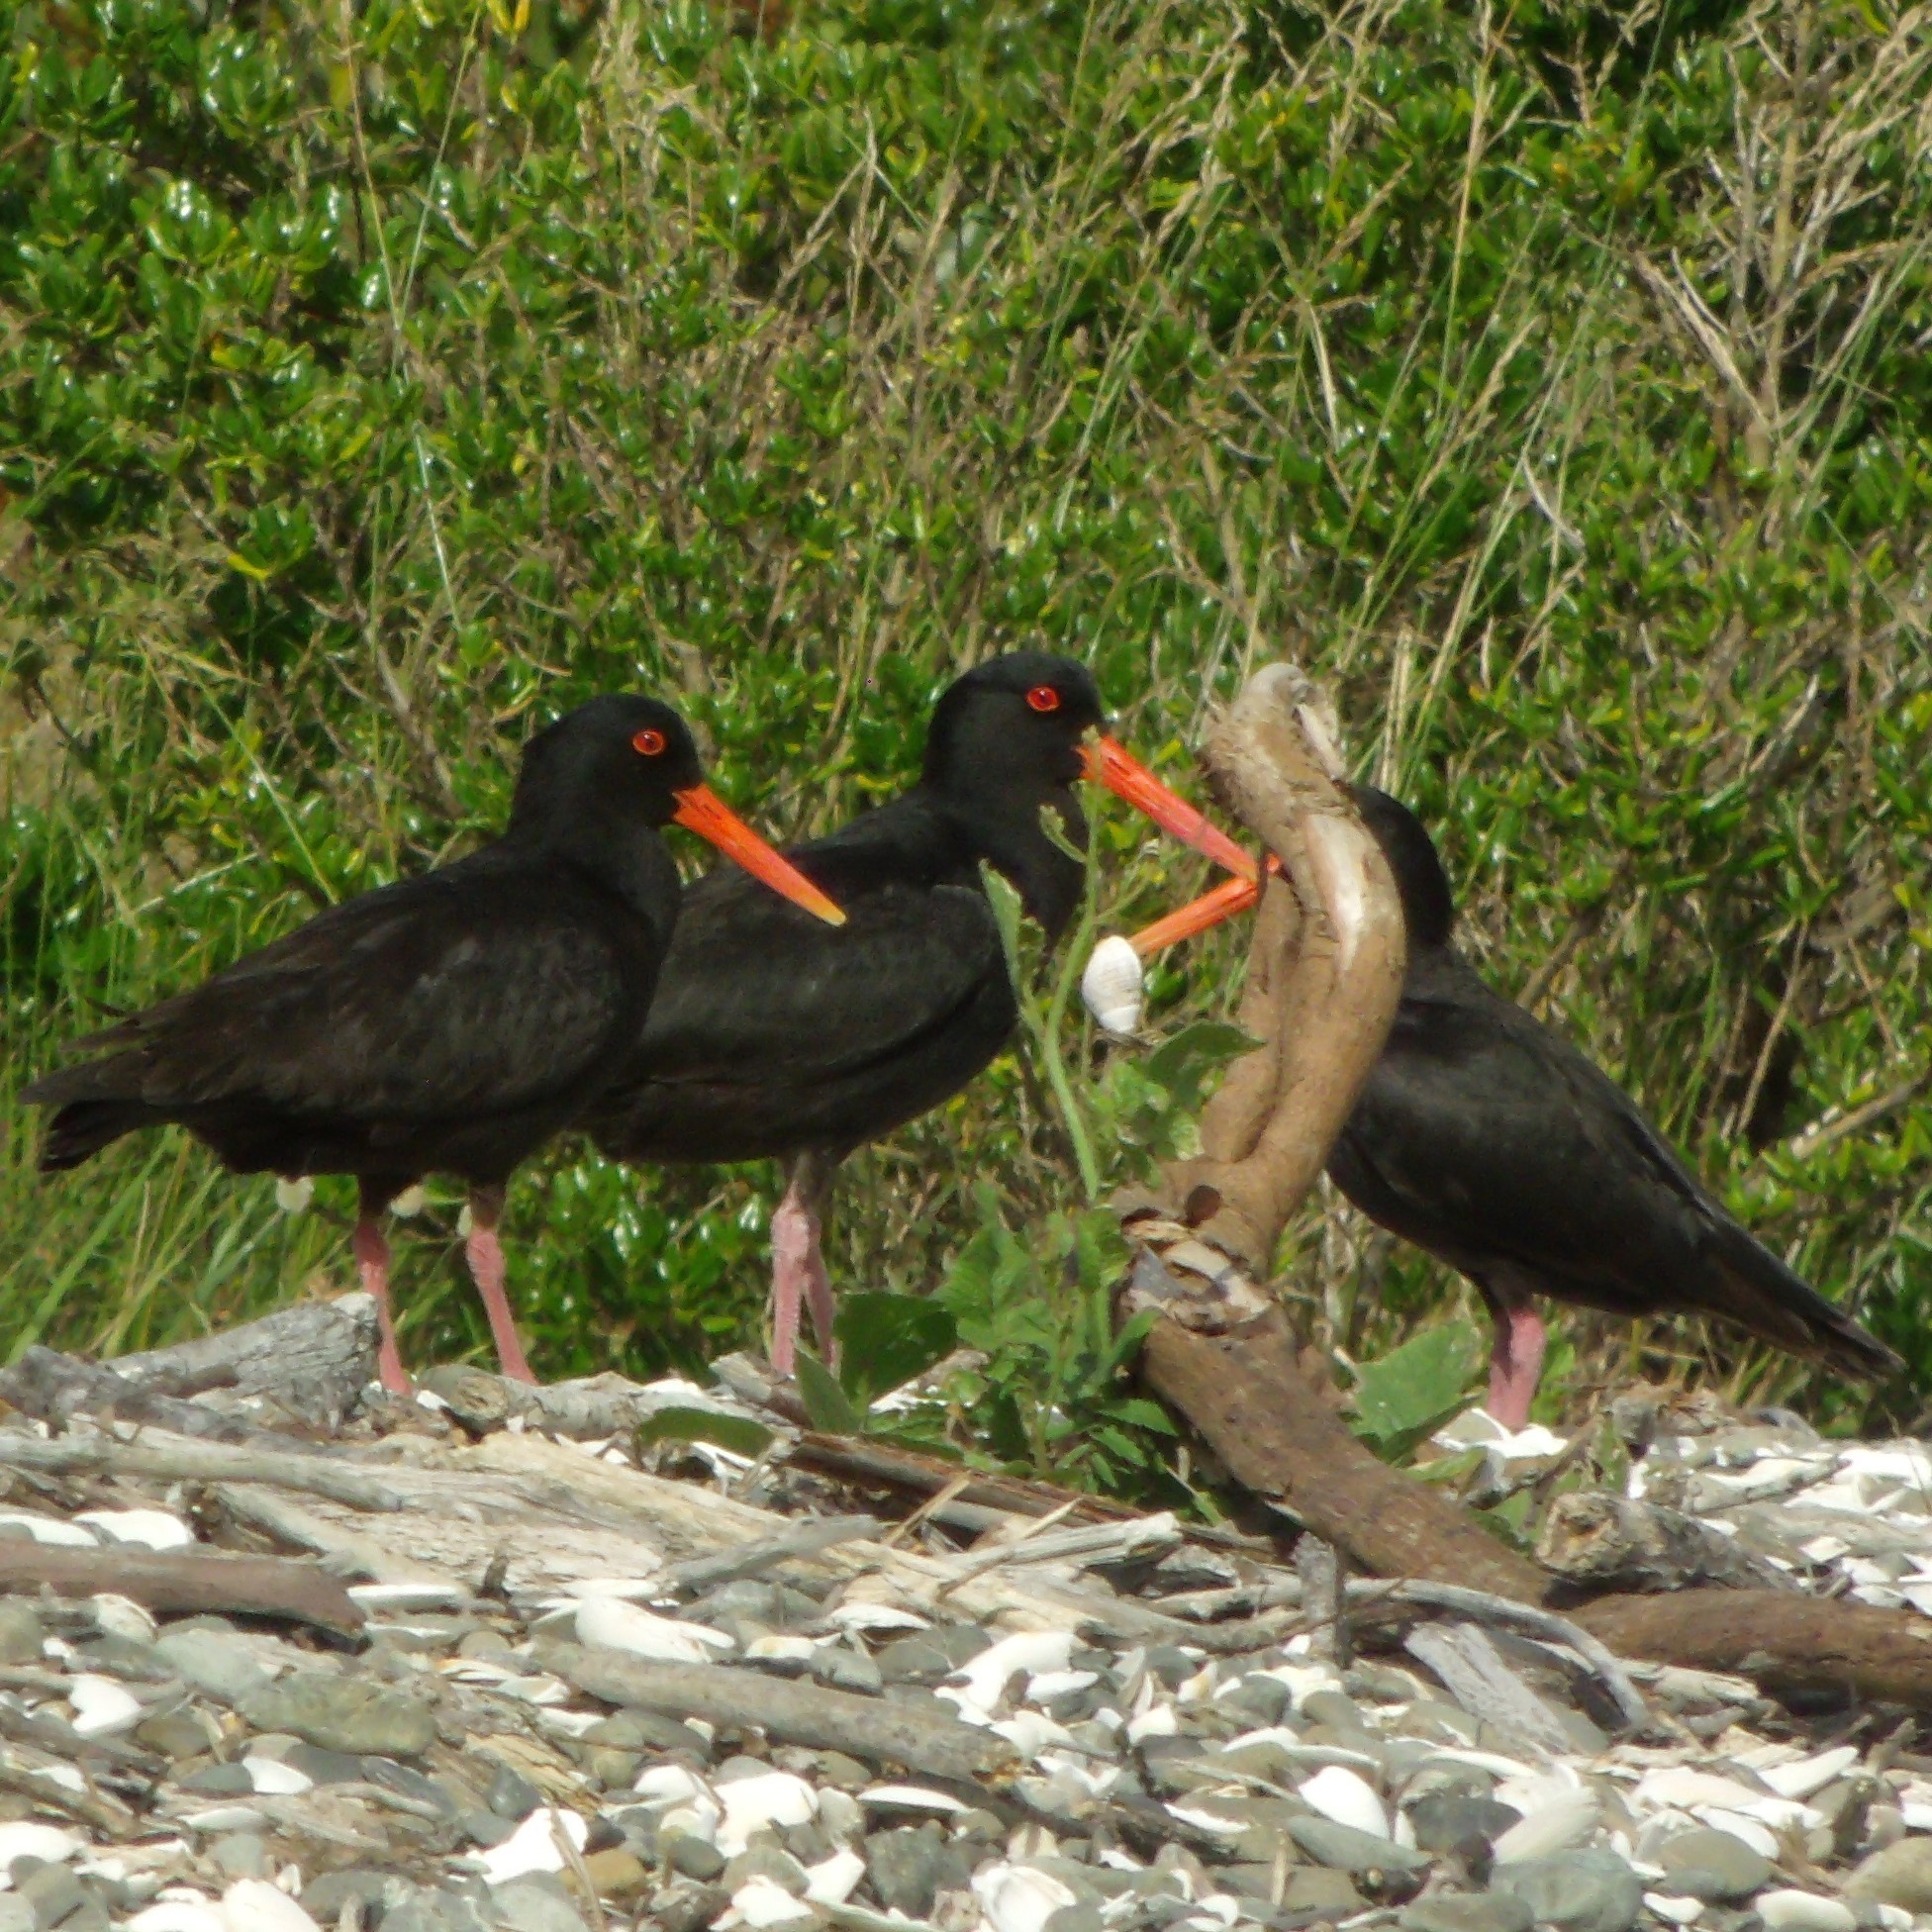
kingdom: Animalia
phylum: Chordata
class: Aves
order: Charadriiformes
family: Haematopodidae
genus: Haematopus
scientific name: Haematopus unicolor
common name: Variable oystercatcher
